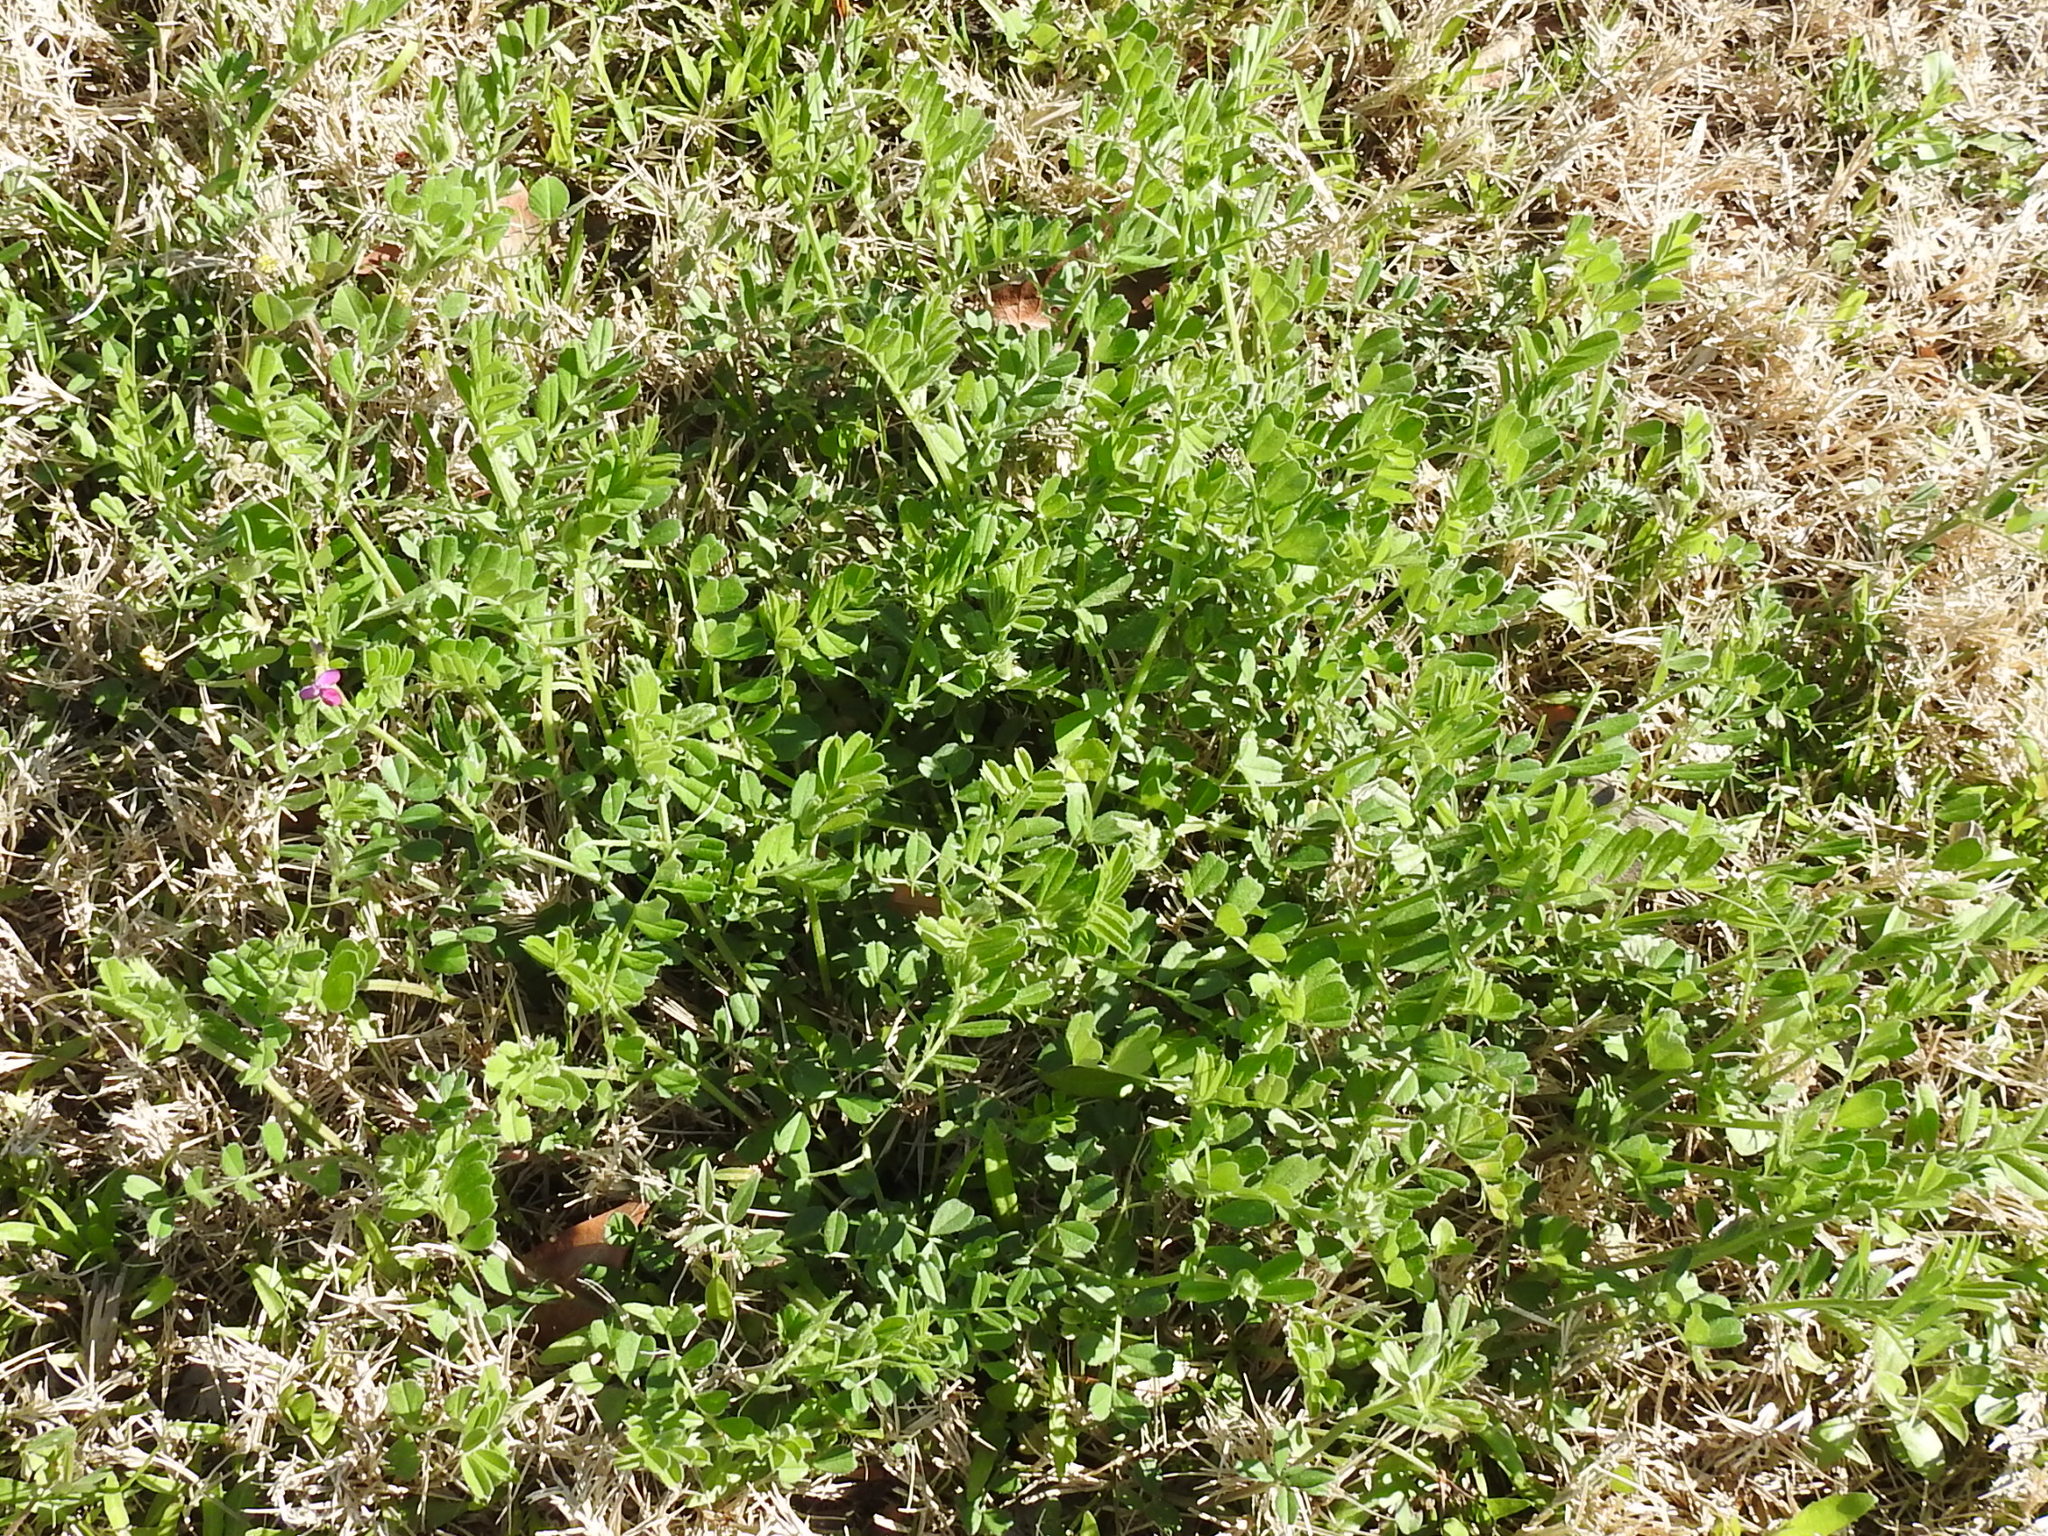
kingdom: Plantae
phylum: Tracheophyta
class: Magnoliopsida
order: Fabales
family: Fabaceae
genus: Vicia
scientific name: Vicia sativa
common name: Garden vetch
